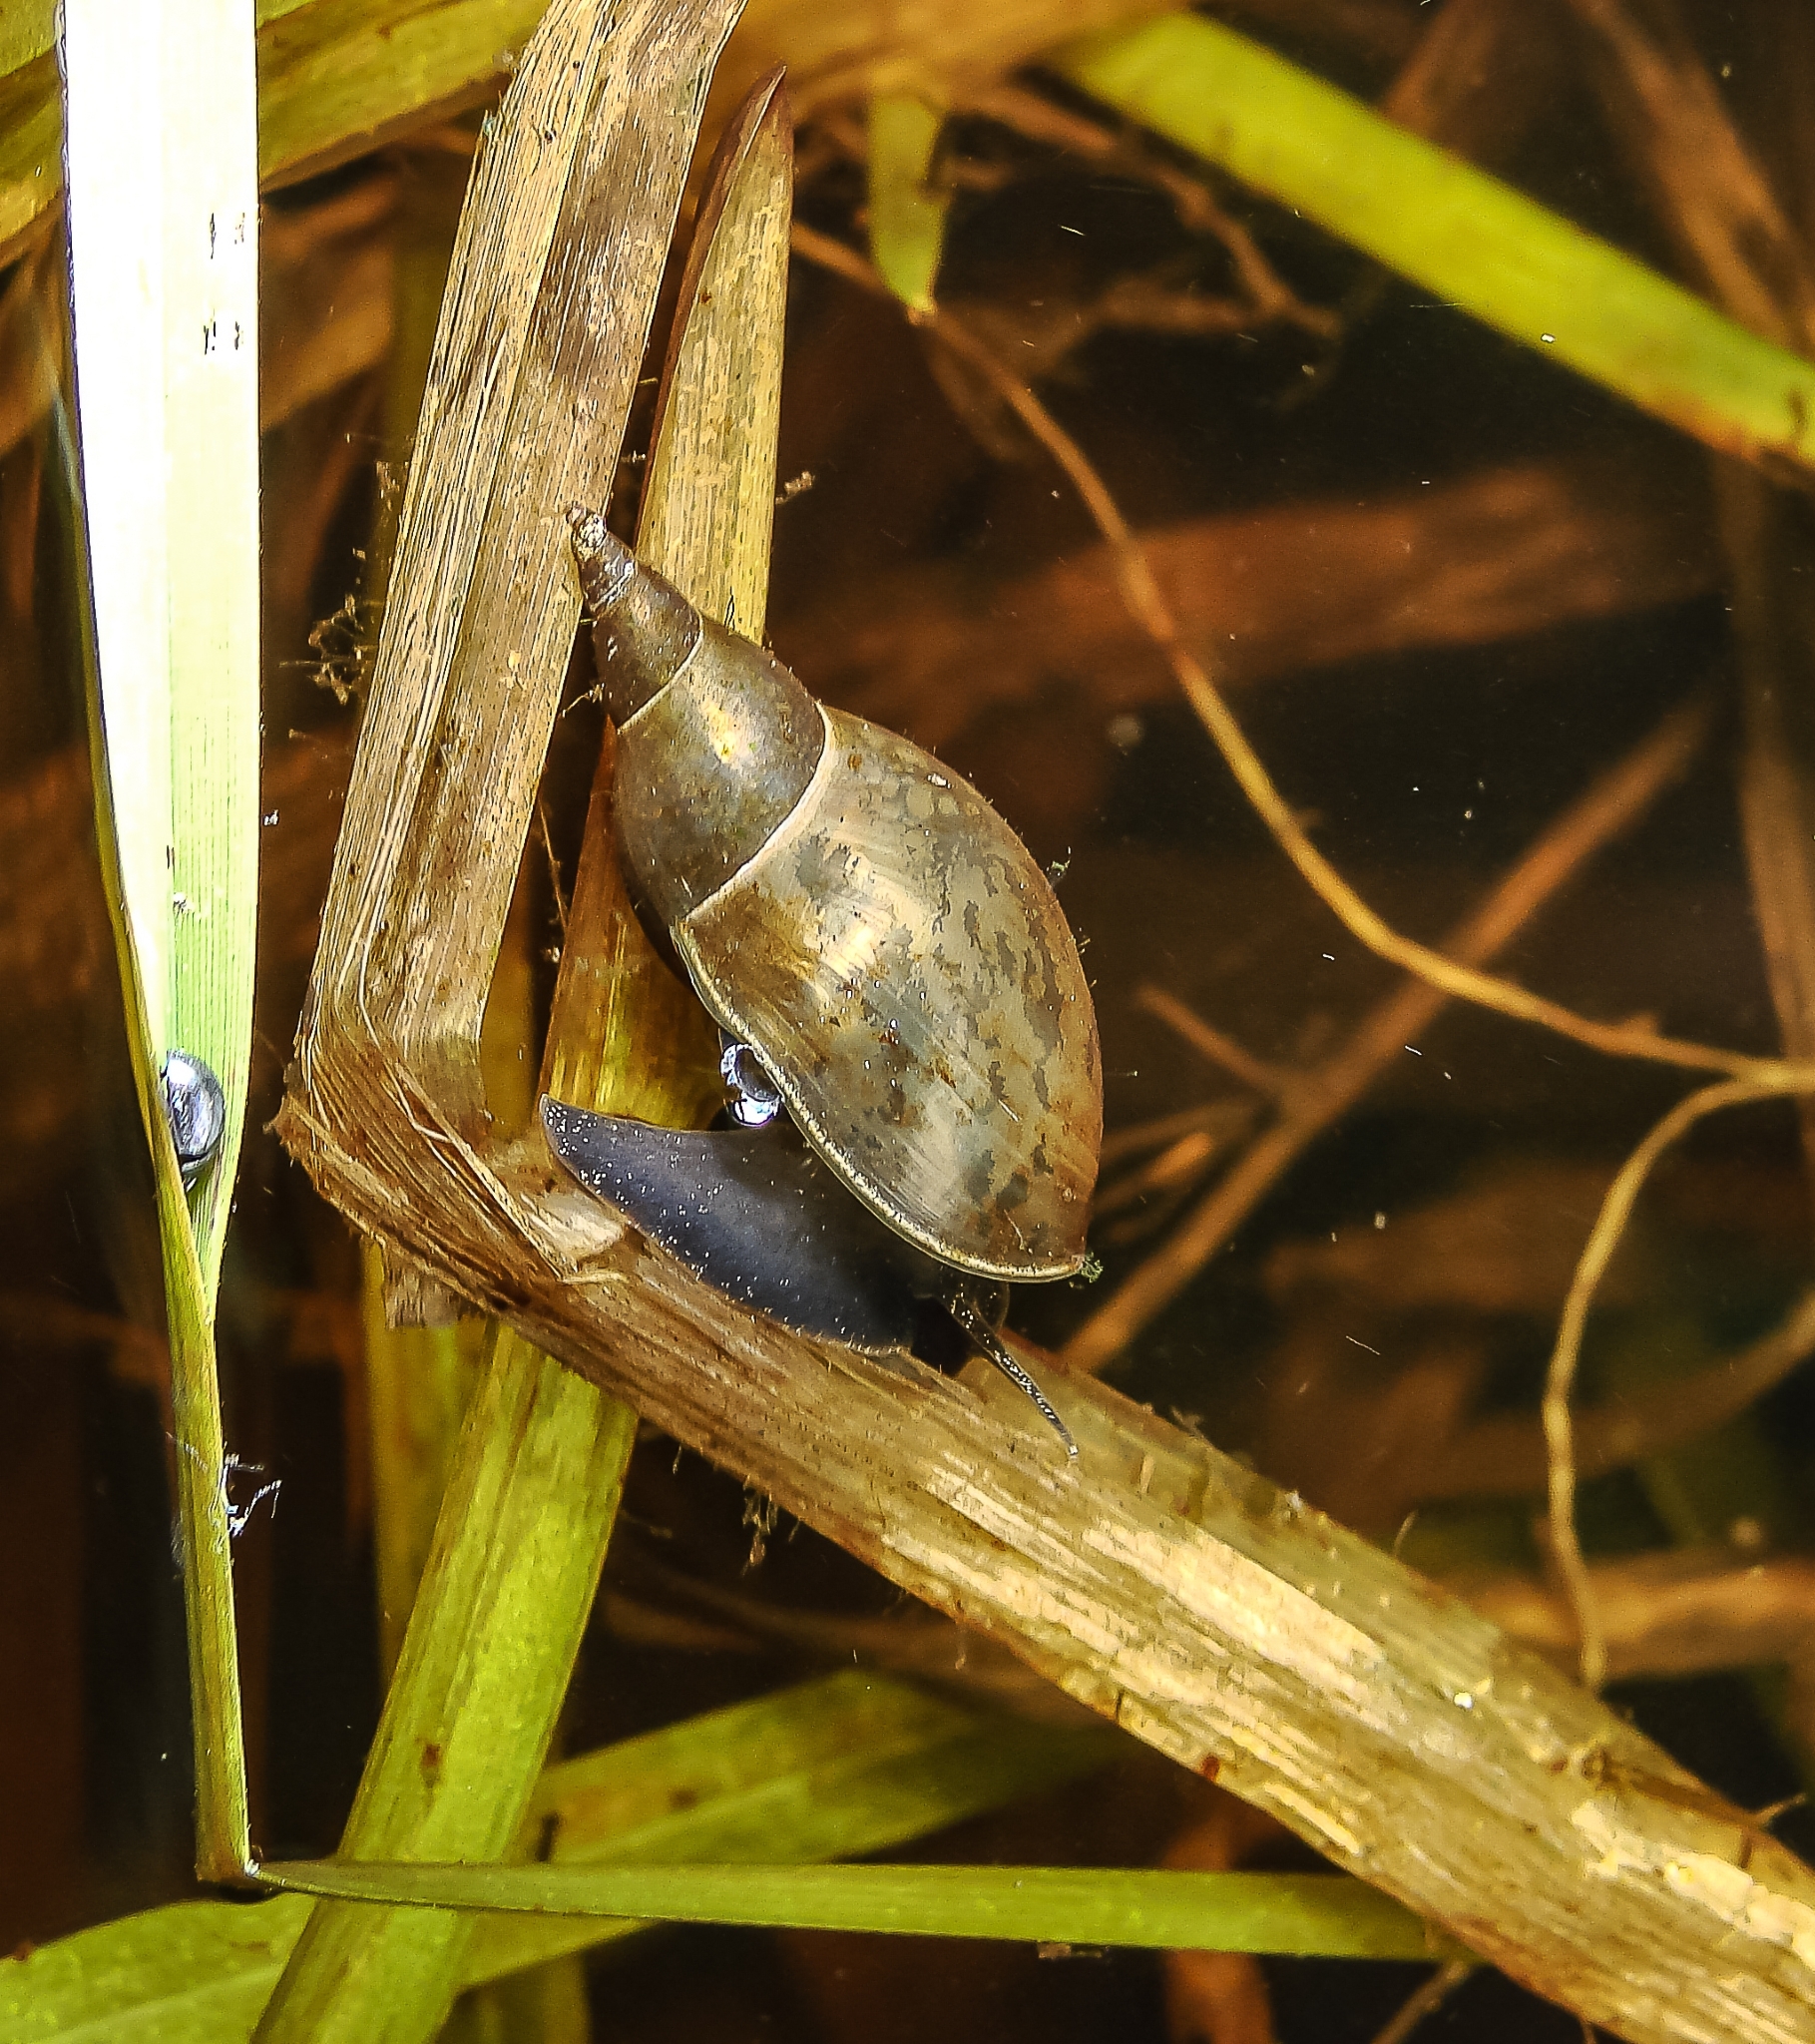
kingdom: Animalia
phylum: Mollusca
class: Gastropoda
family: Lymnaeidae
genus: Lymnaea
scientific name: Lymnaea stagnalis
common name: Great pond snail
